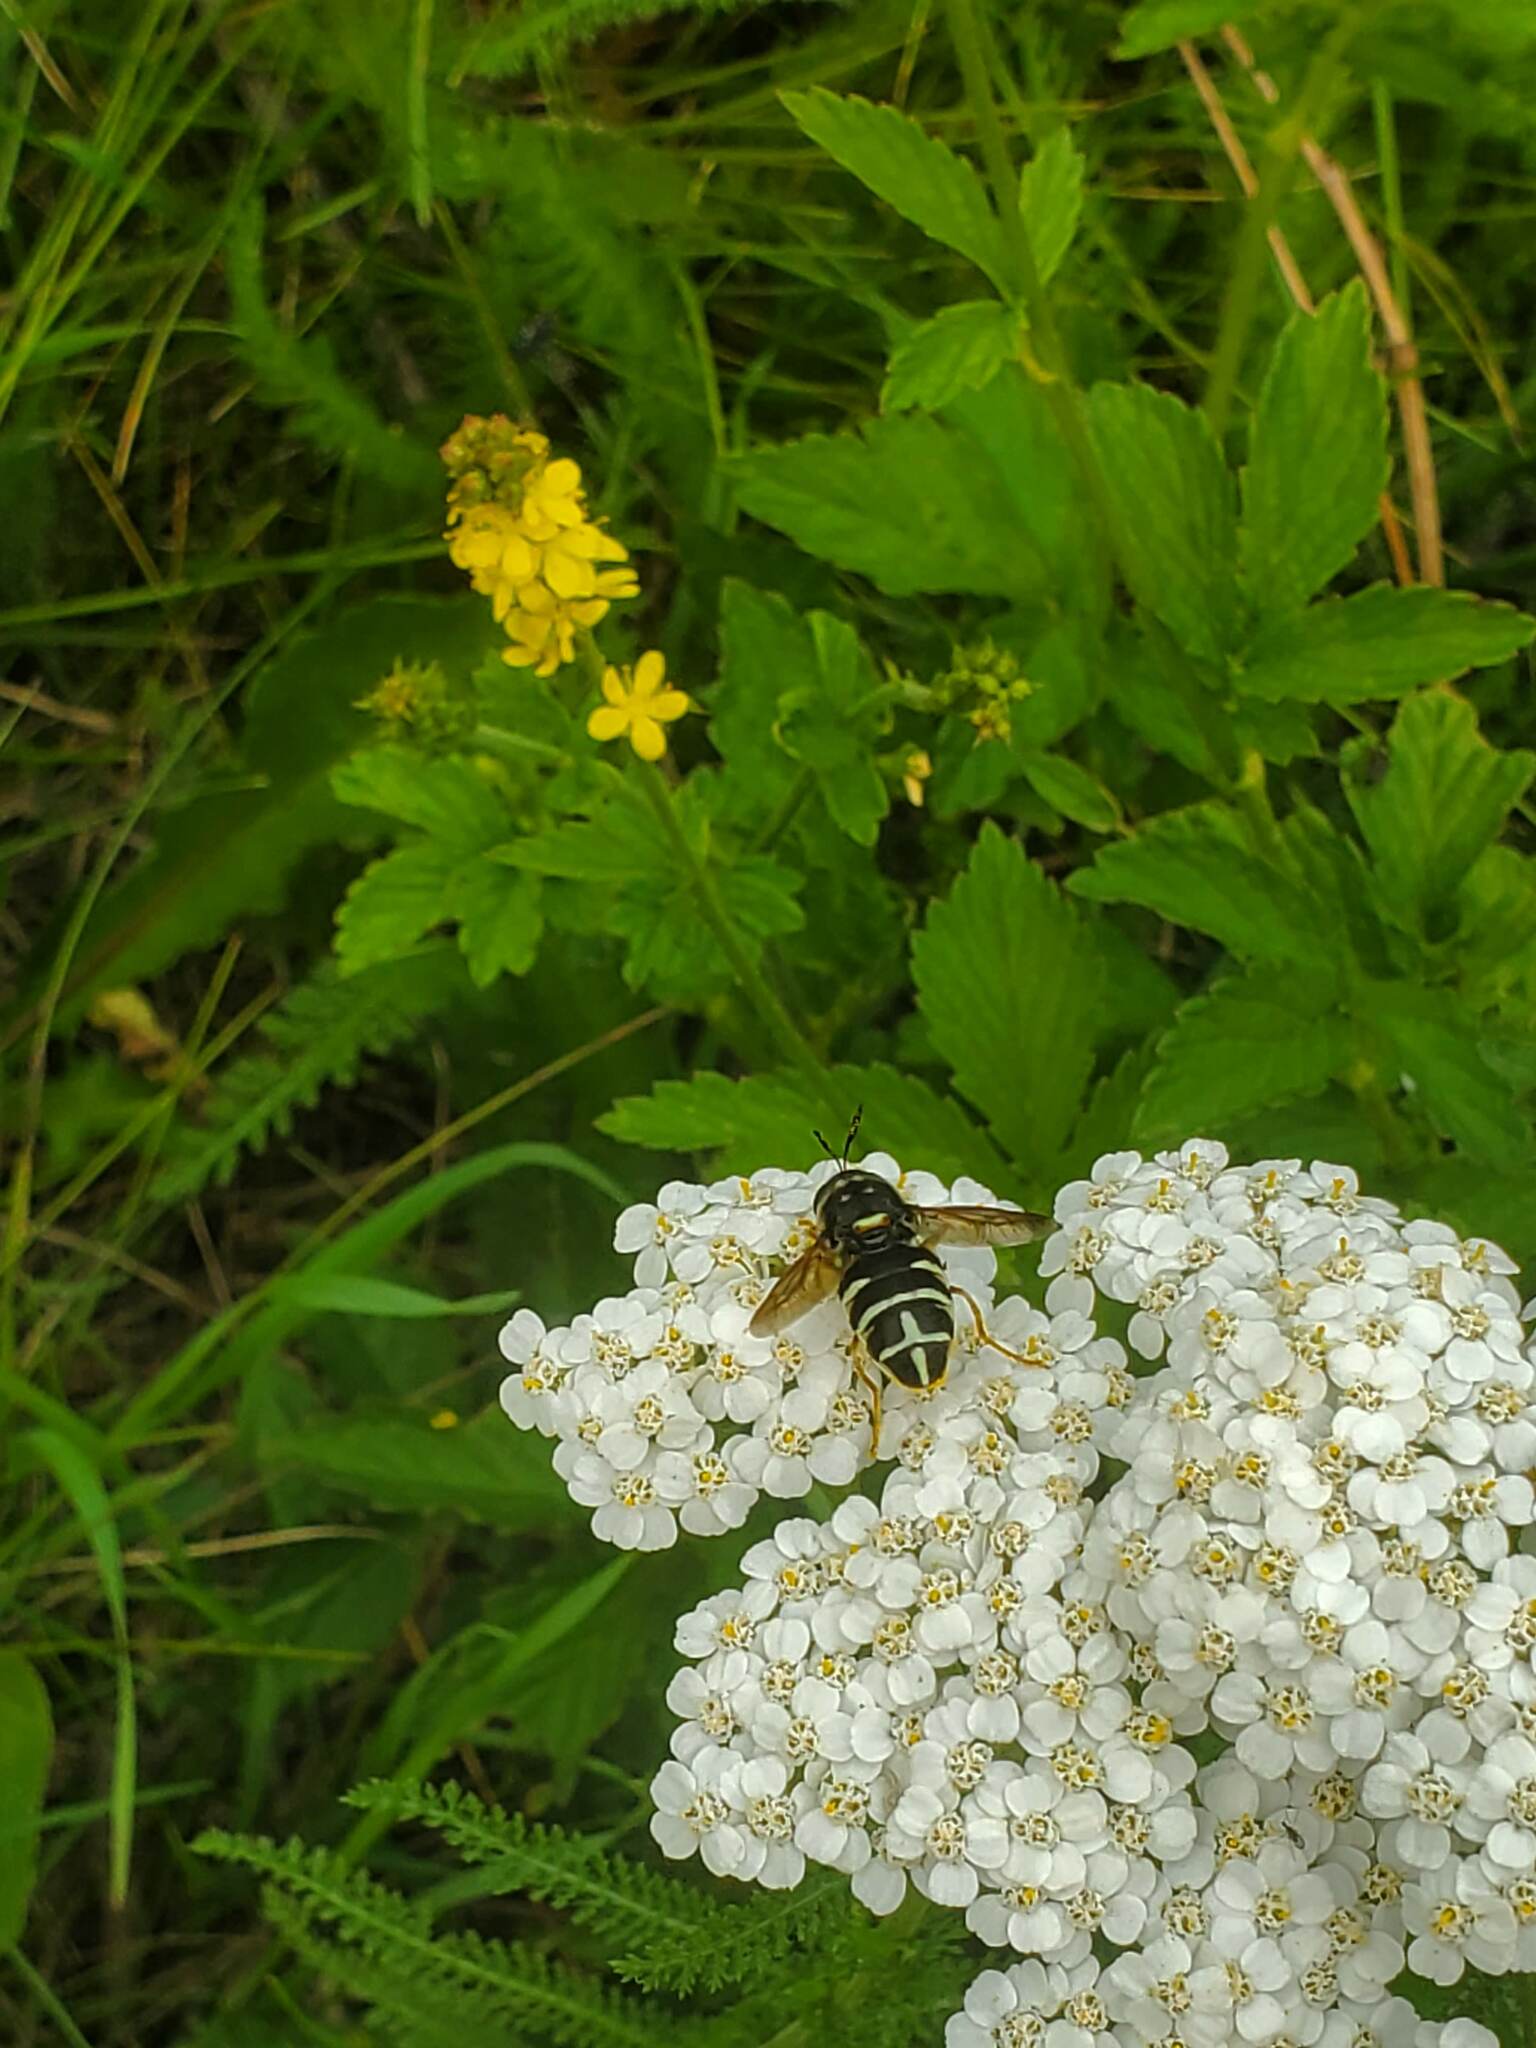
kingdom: Animalia
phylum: Arthropoda
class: Insecta
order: Diptera
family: Stratiomyidae
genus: Stratiomys
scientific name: Stratiomys badia
